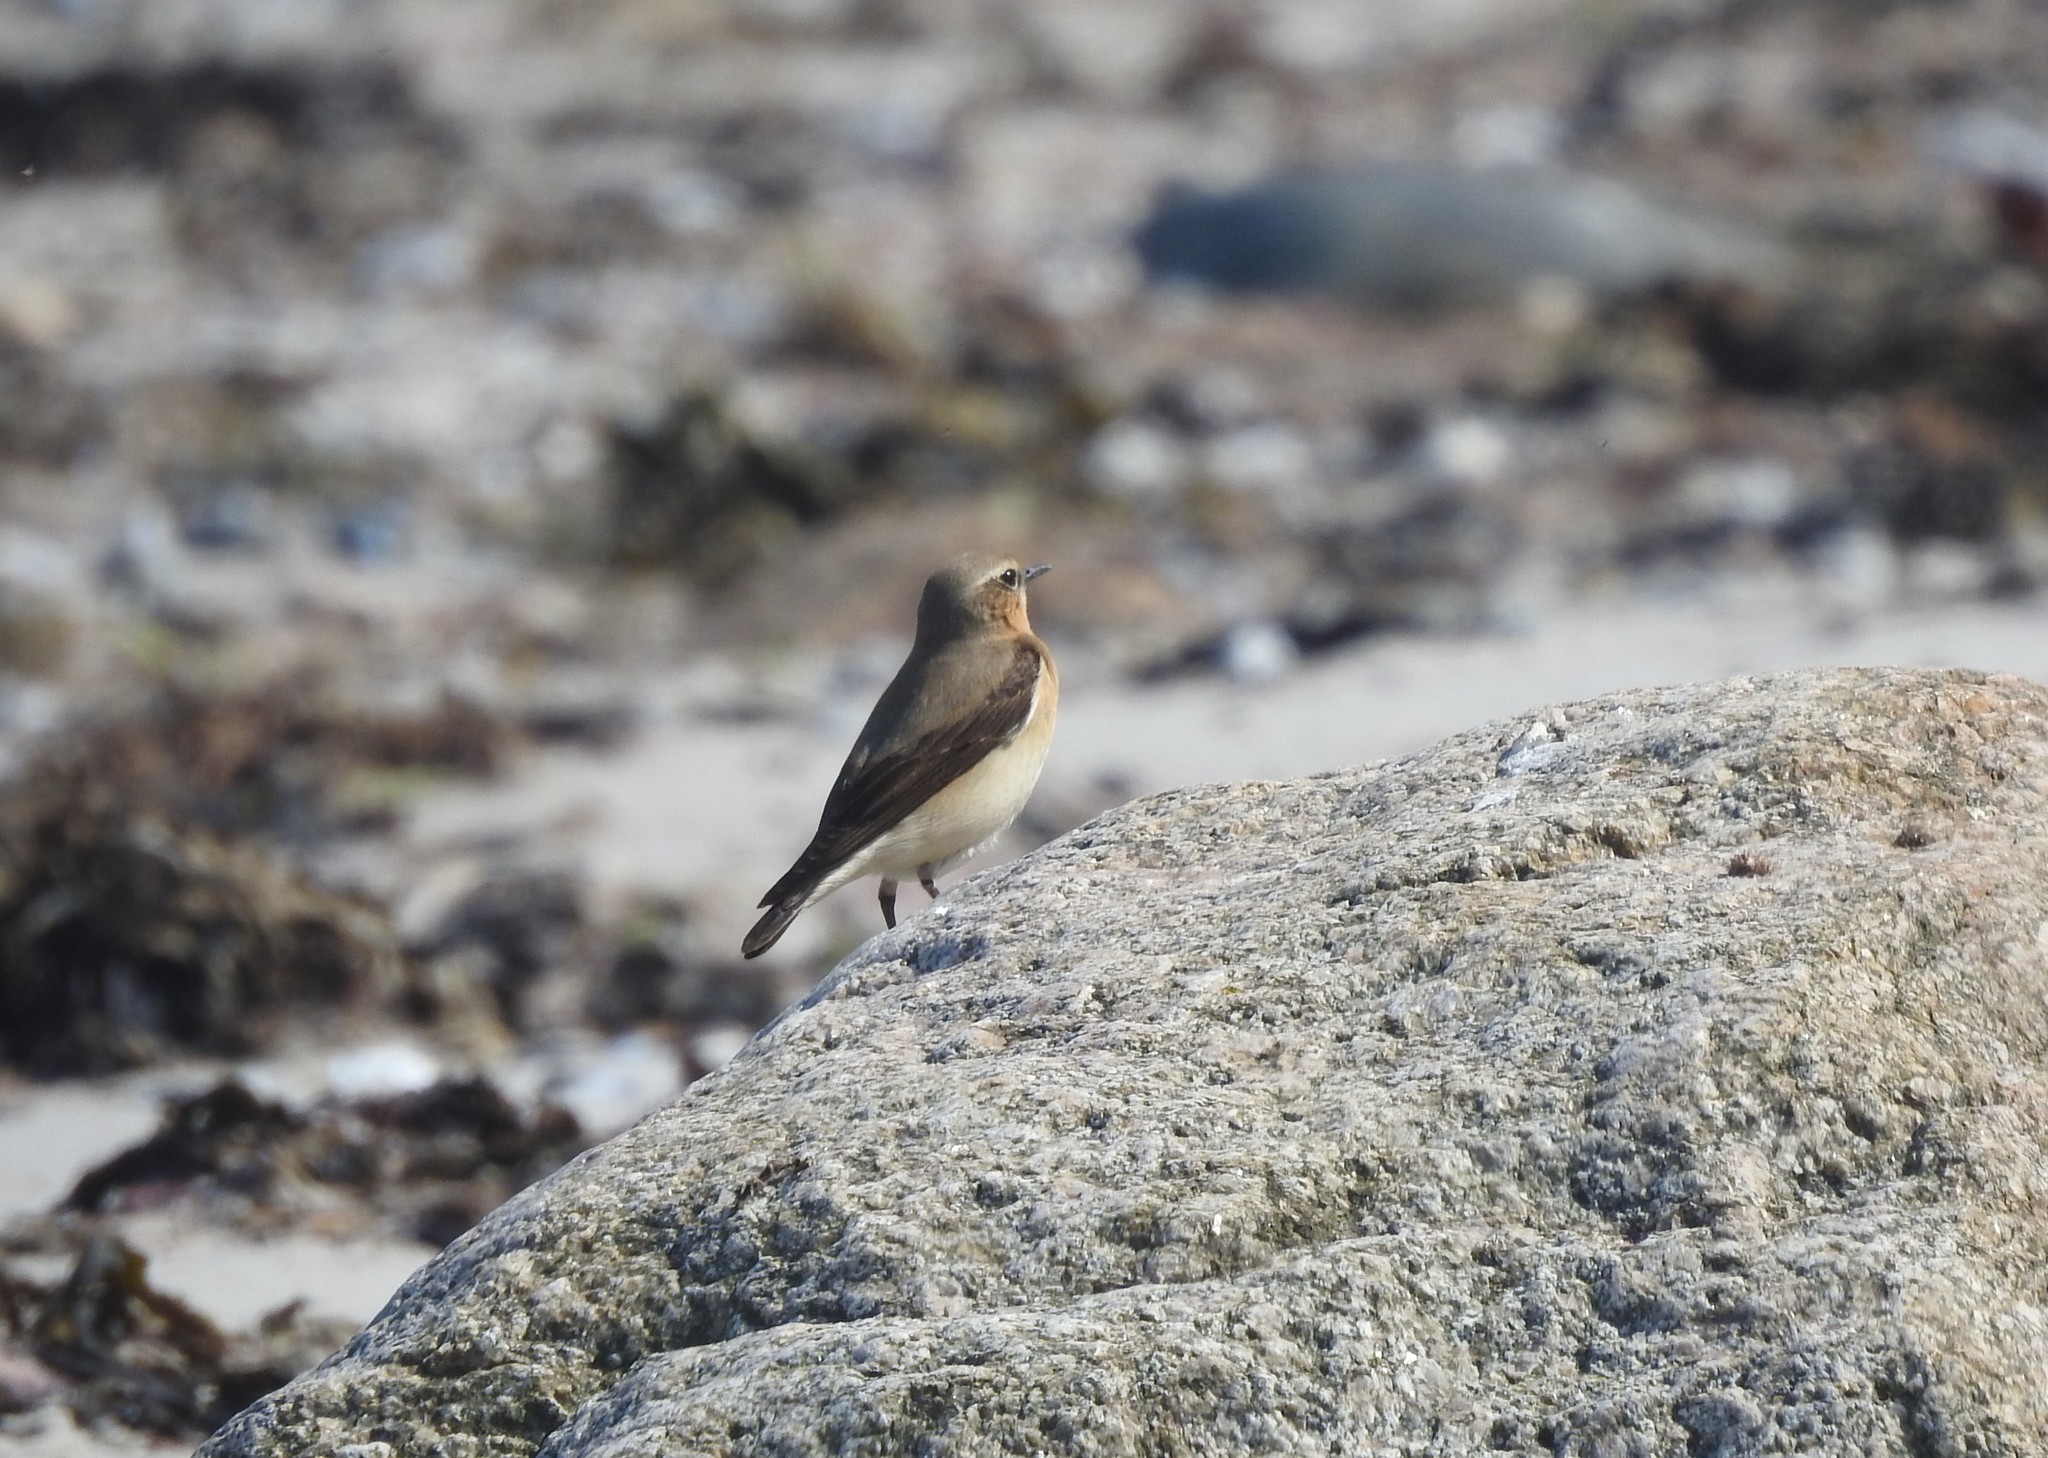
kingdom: Animalia
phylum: Chordata
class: Aves
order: Passeriformes
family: Muscicapidae
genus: Oenanthe
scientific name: Oenanthe oenanthe
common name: Northern wheatear
